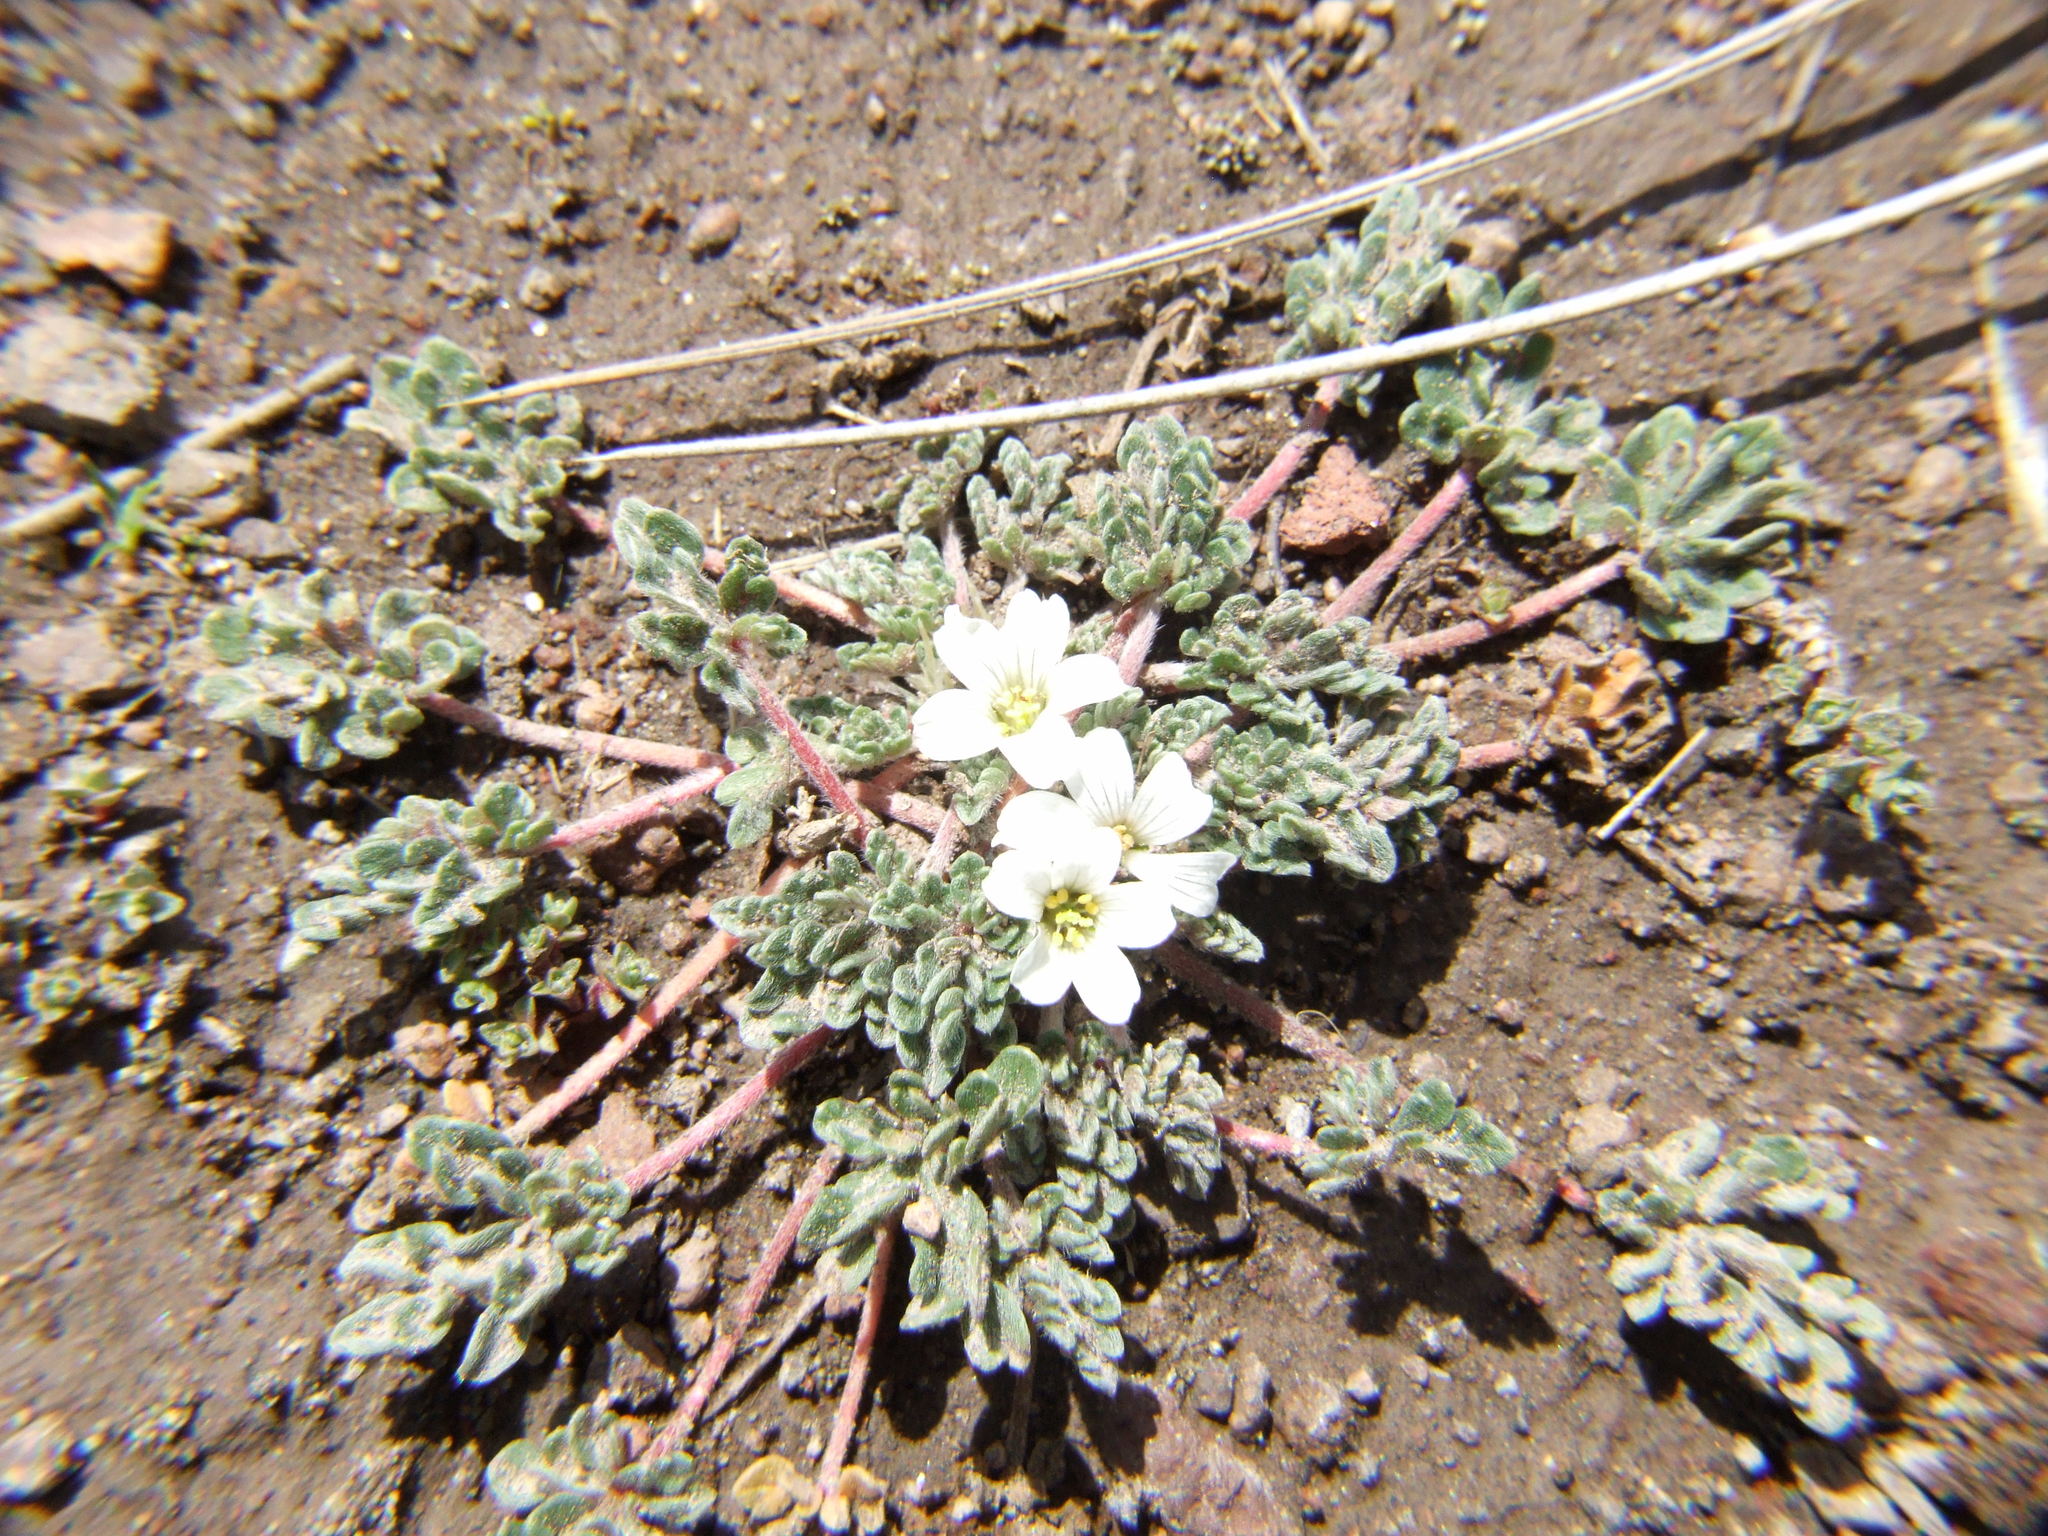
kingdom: Plantae
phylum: Tracheophyta
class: Magnoliopsida
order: Geraniales
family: Geraniaceae
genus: Geranium
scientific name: Geranium sessiliflorum
